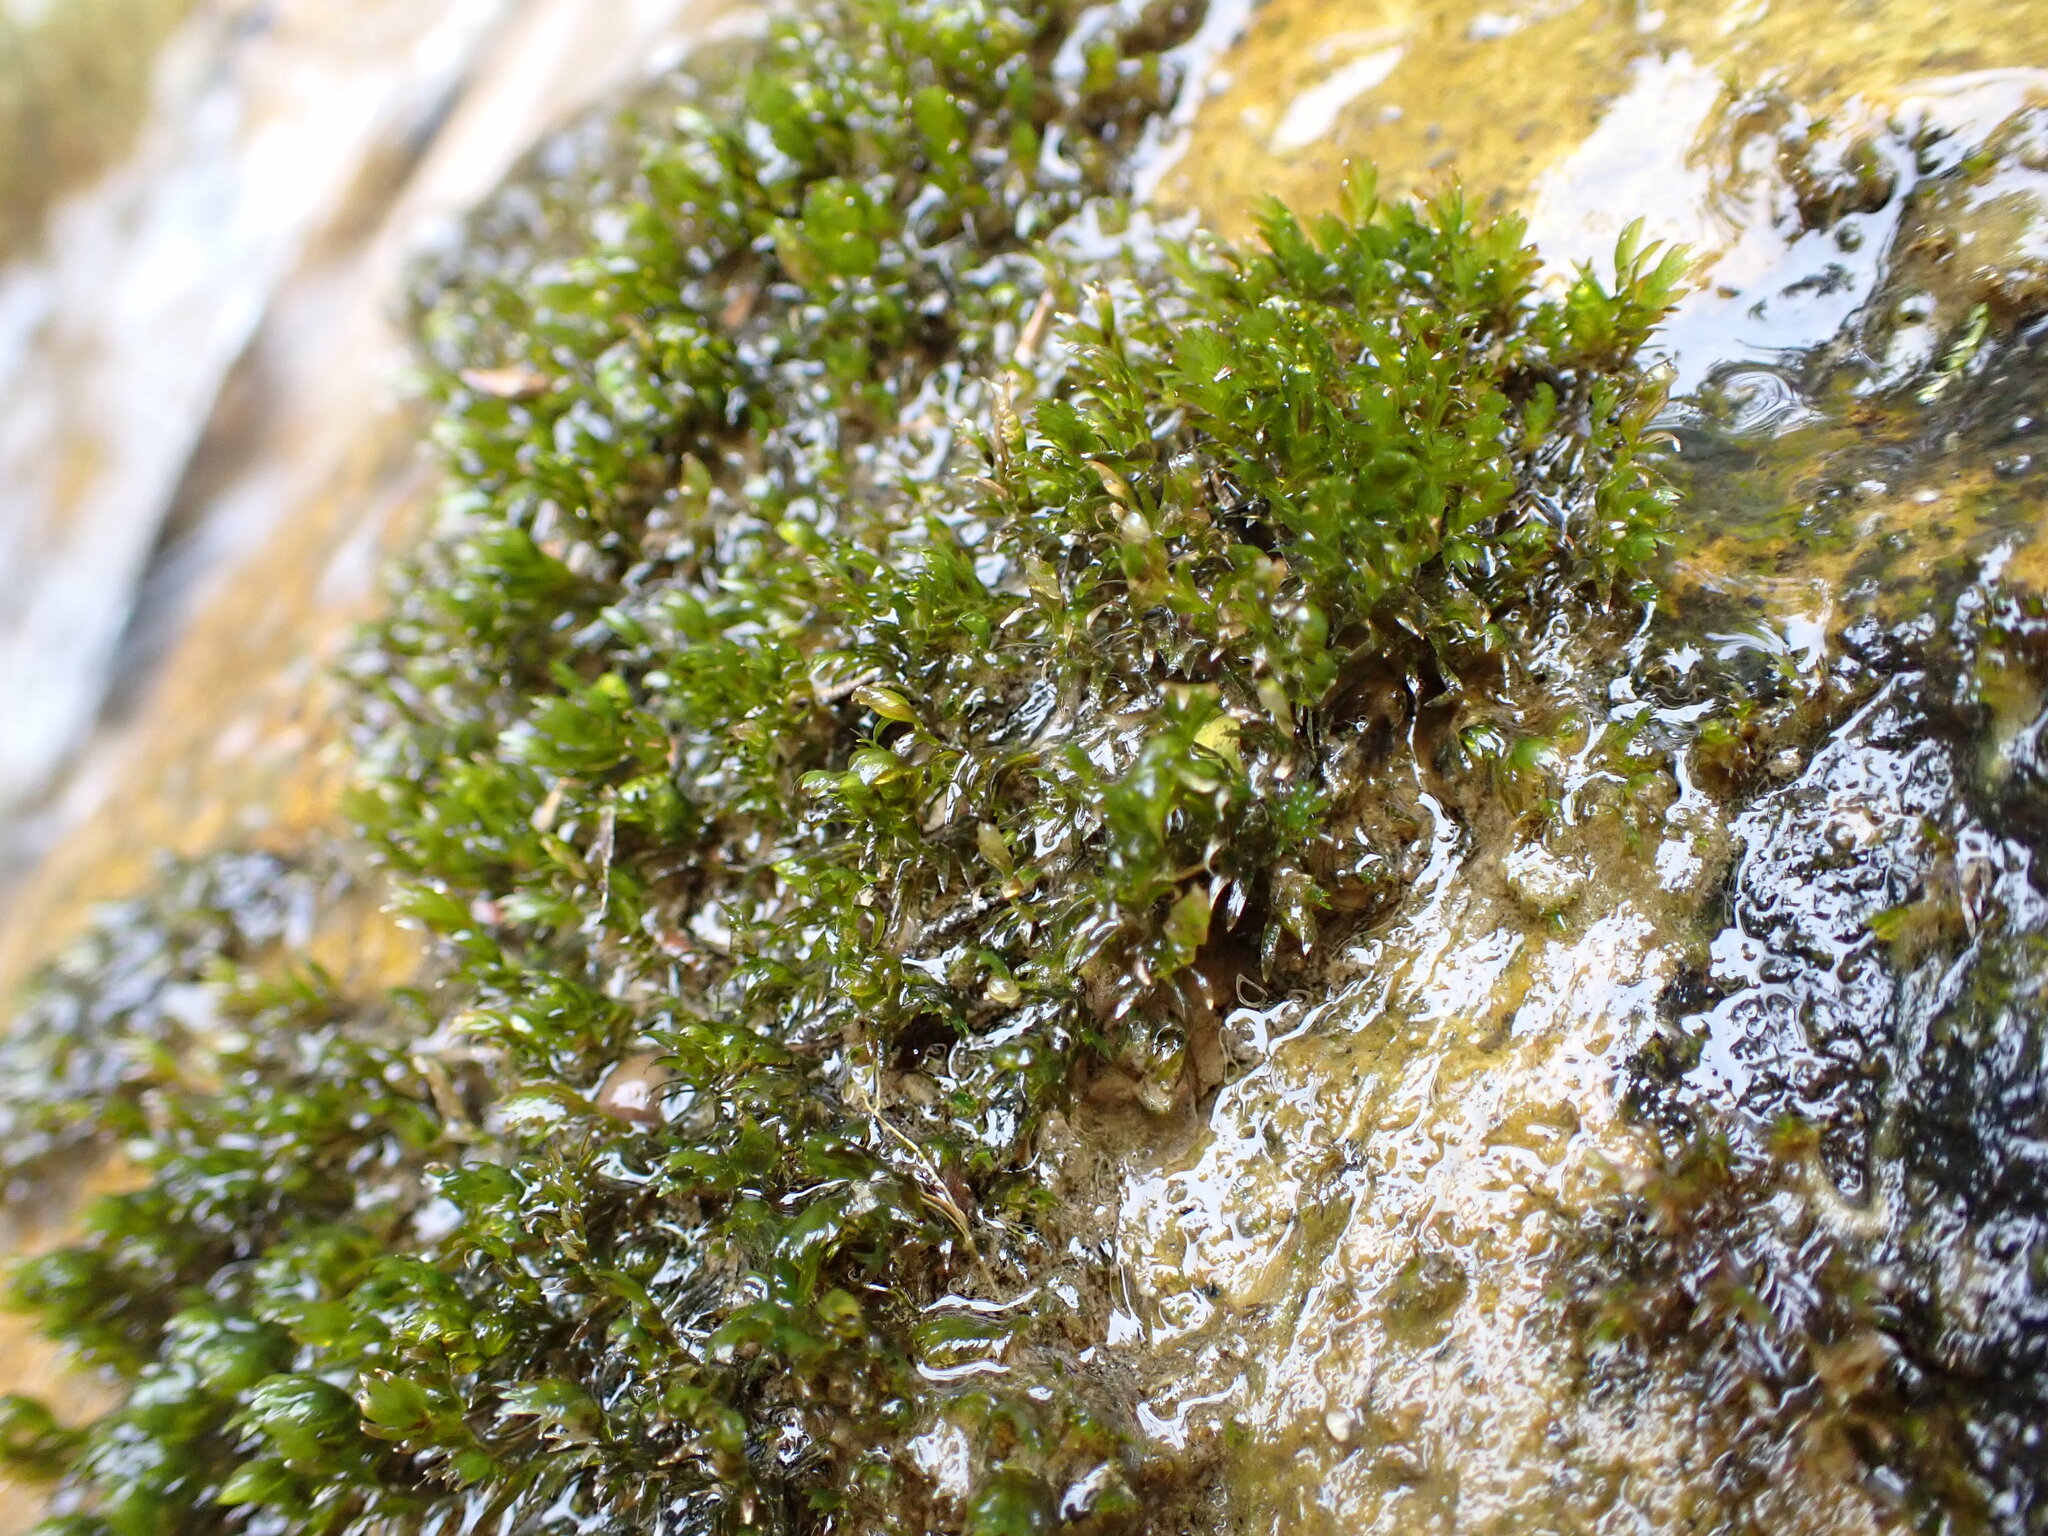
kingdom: Plantae
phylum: Bryophyta
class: Bryopsida
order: Dicranales
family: Fissidentaceae
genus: Fissidens
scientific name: Fissidens rigidulus
